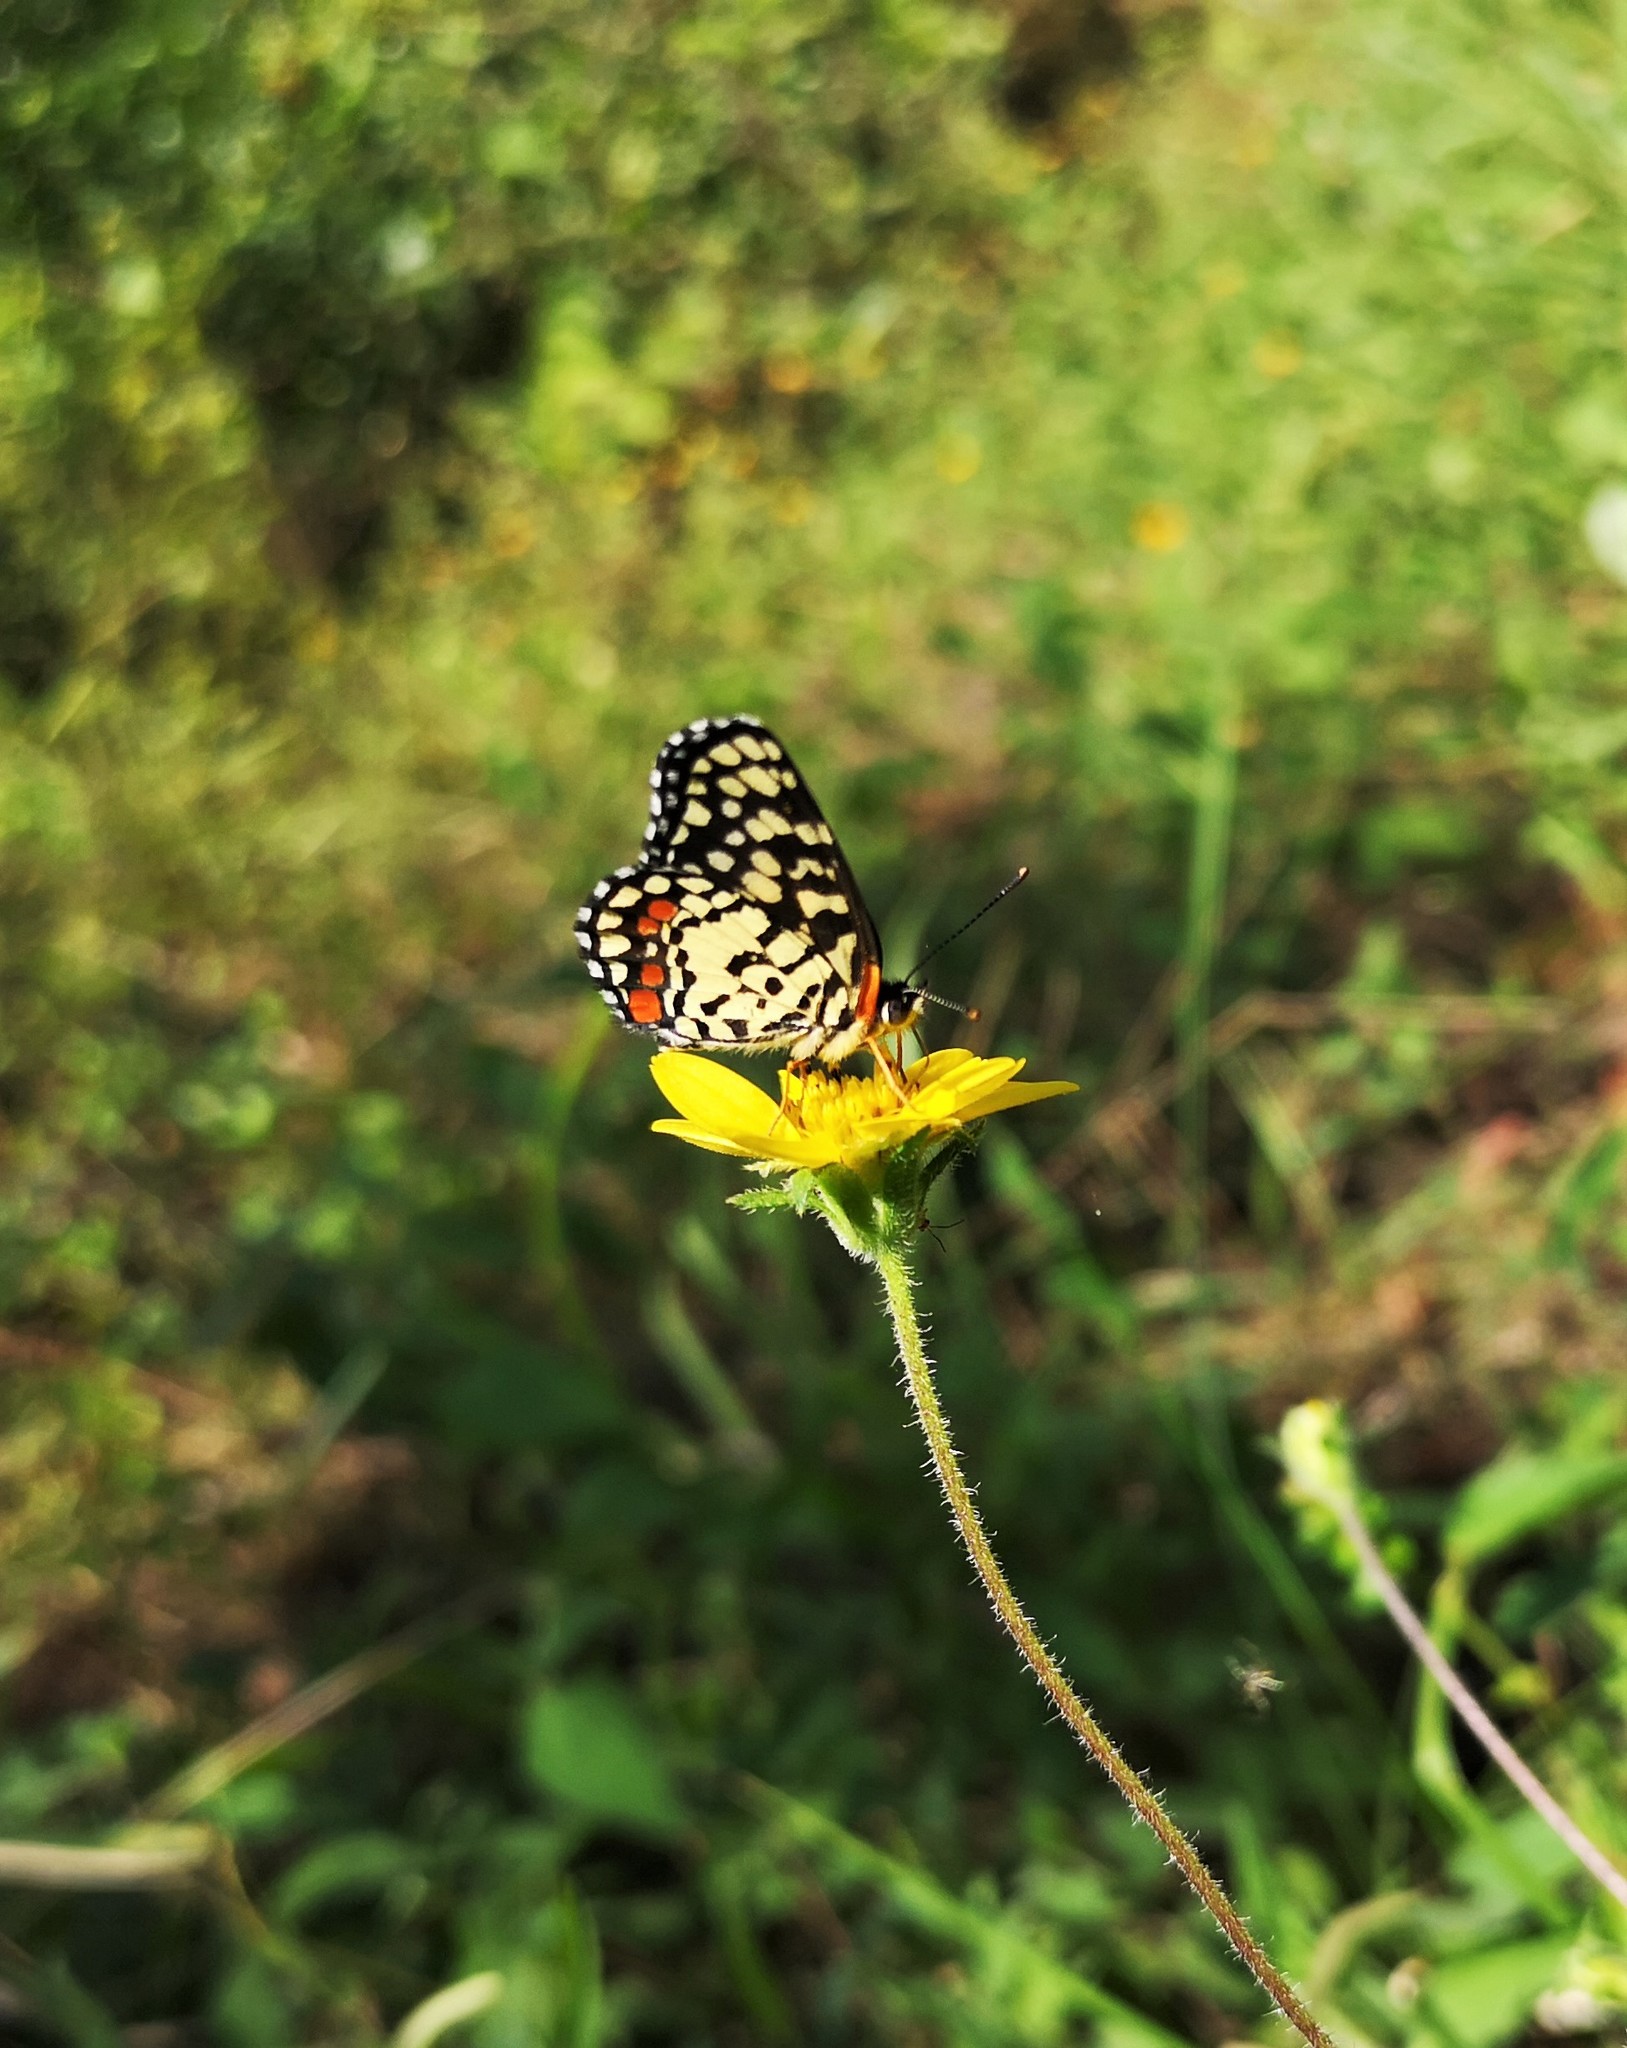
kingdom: Animalia
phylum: Arthropoda
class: Insecta
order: Lepidoptera
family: Nymphalidae
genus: Chlosyne
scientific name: Chlosyne marina
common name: Red-spotted patch
